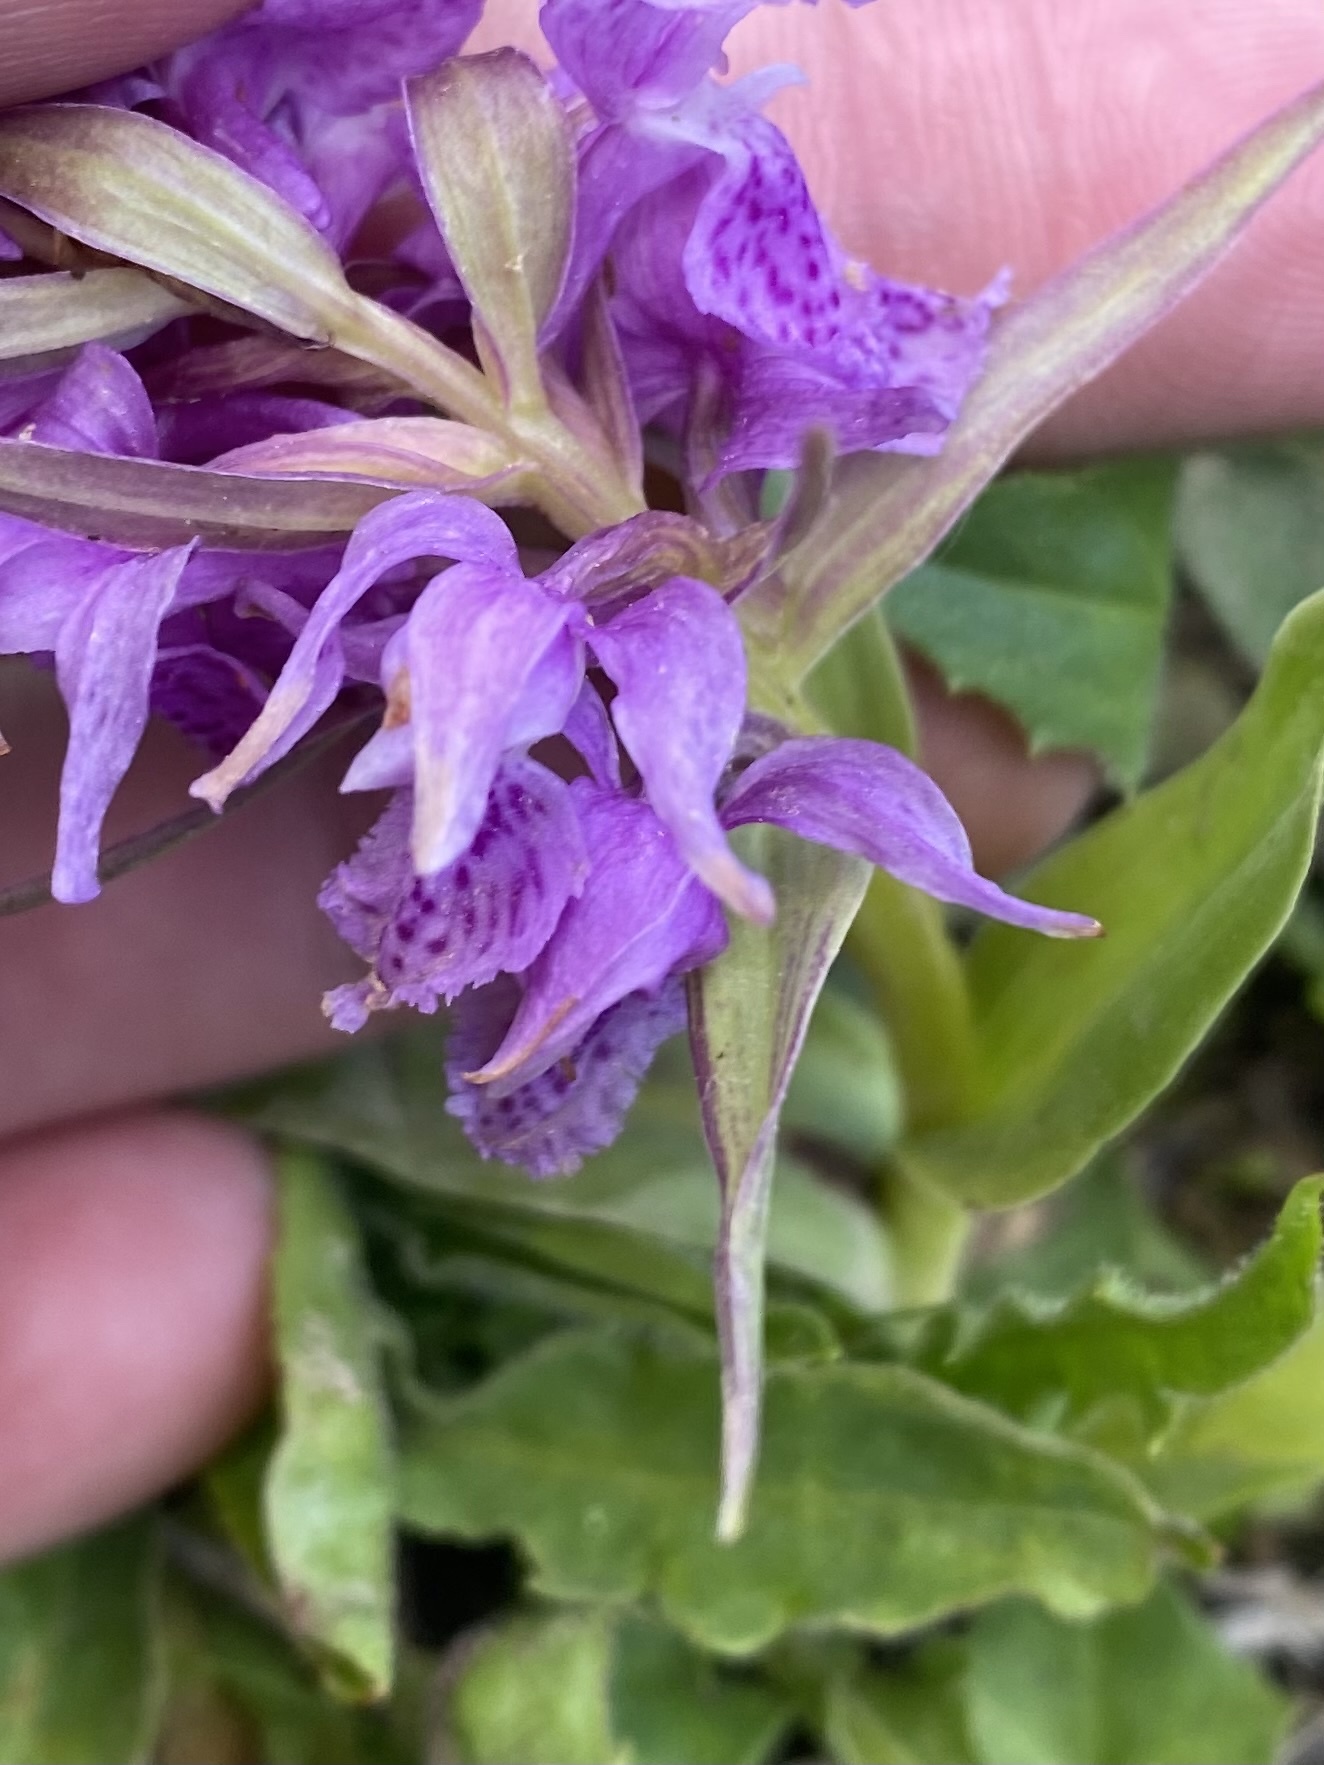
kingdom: Plantae
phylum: Tracheophyta
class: Liliopsida
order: Asparagales
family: Orchidaceae
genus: Dactylorhiza
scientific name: Dactylorhiza euxina
